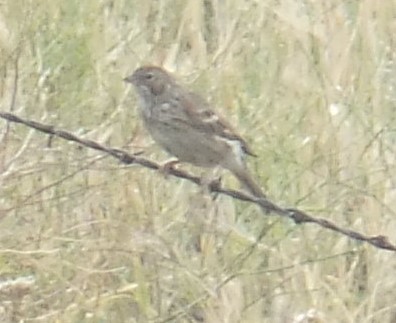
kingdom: Animalia
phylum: Chordata
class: Aves
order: Passeriformes
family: Passerellidae
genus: Pooecetes
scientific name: Pooecetes gramineus
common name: Vesper sparrow
